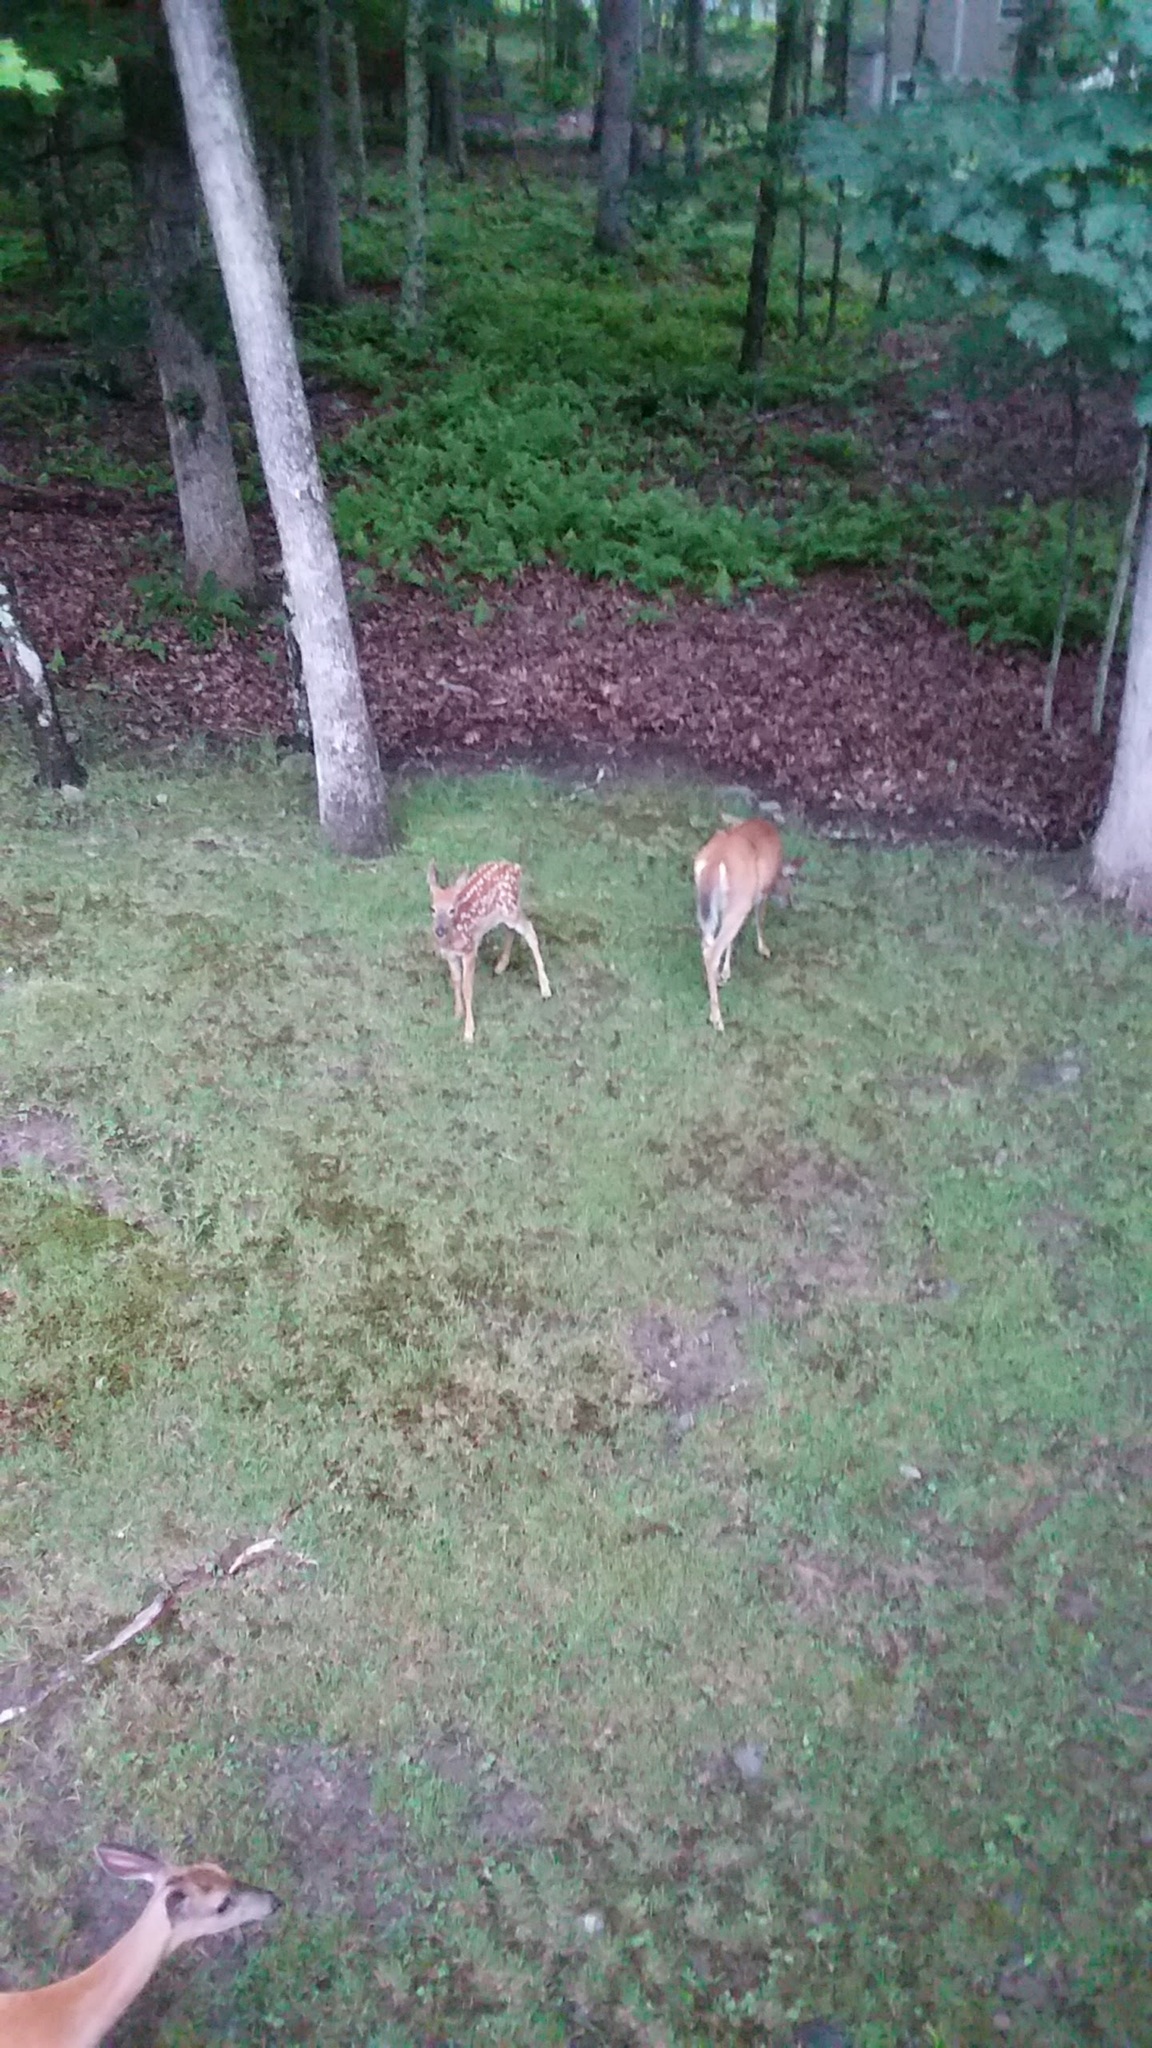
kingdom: Animalia
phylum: Chordata
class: Mammalia
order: Artiodactyla
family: Cervidae
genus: Odocoileus
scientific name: Odocoileus virginianus
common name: White-tailed deer
